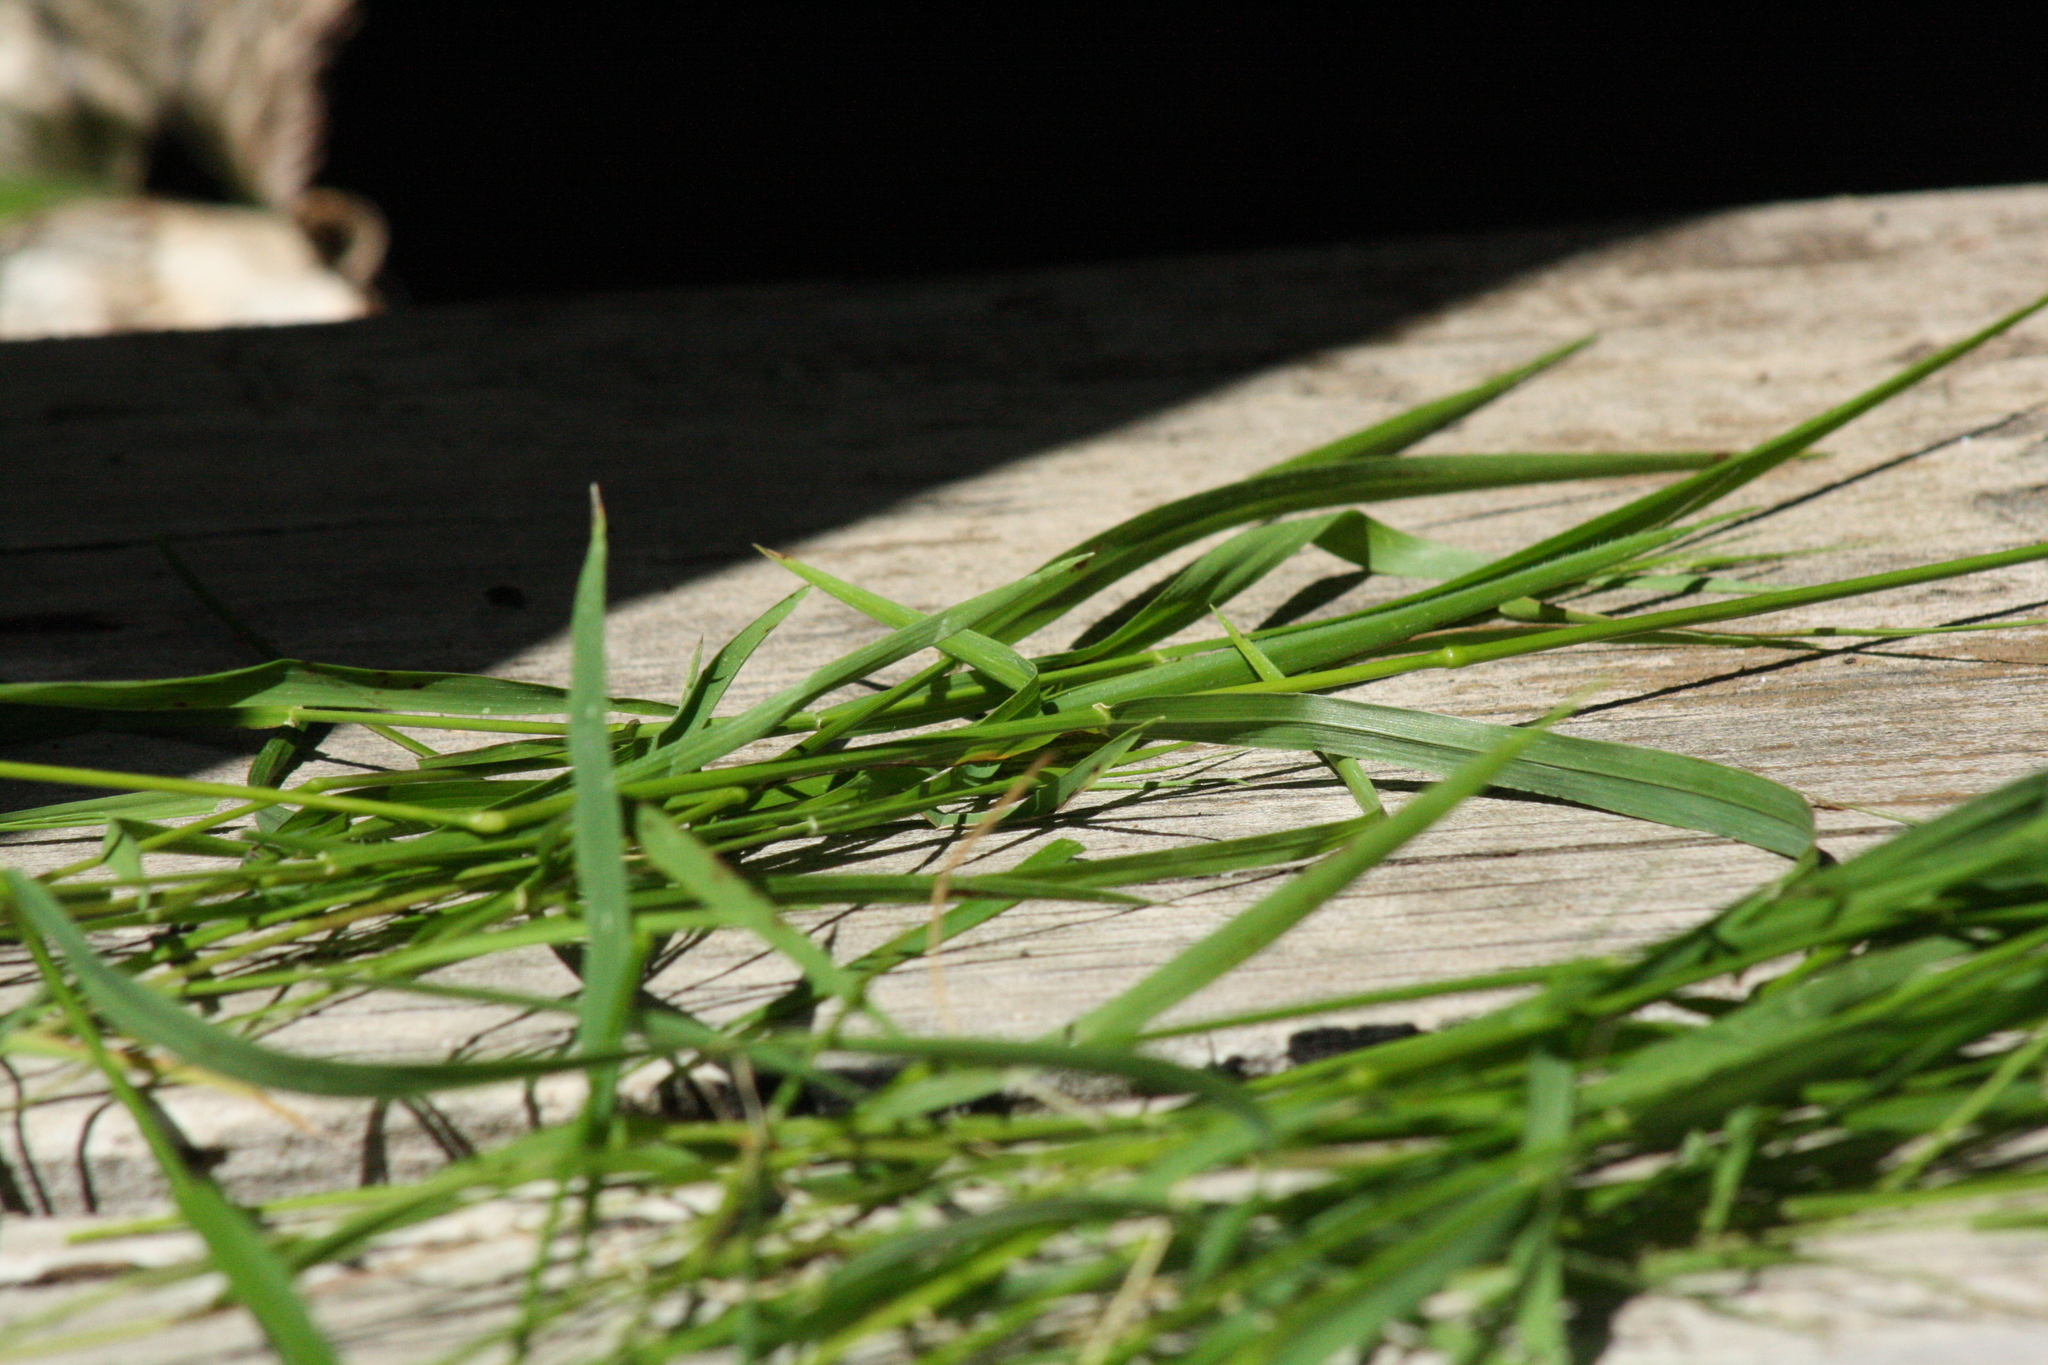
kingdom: Plantae
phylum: Tracheophyta
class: Liliopsida
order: Poales
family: Poaceae
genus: Microlaena
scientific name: Microlaena stipoides
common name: Meadow ricegrass
